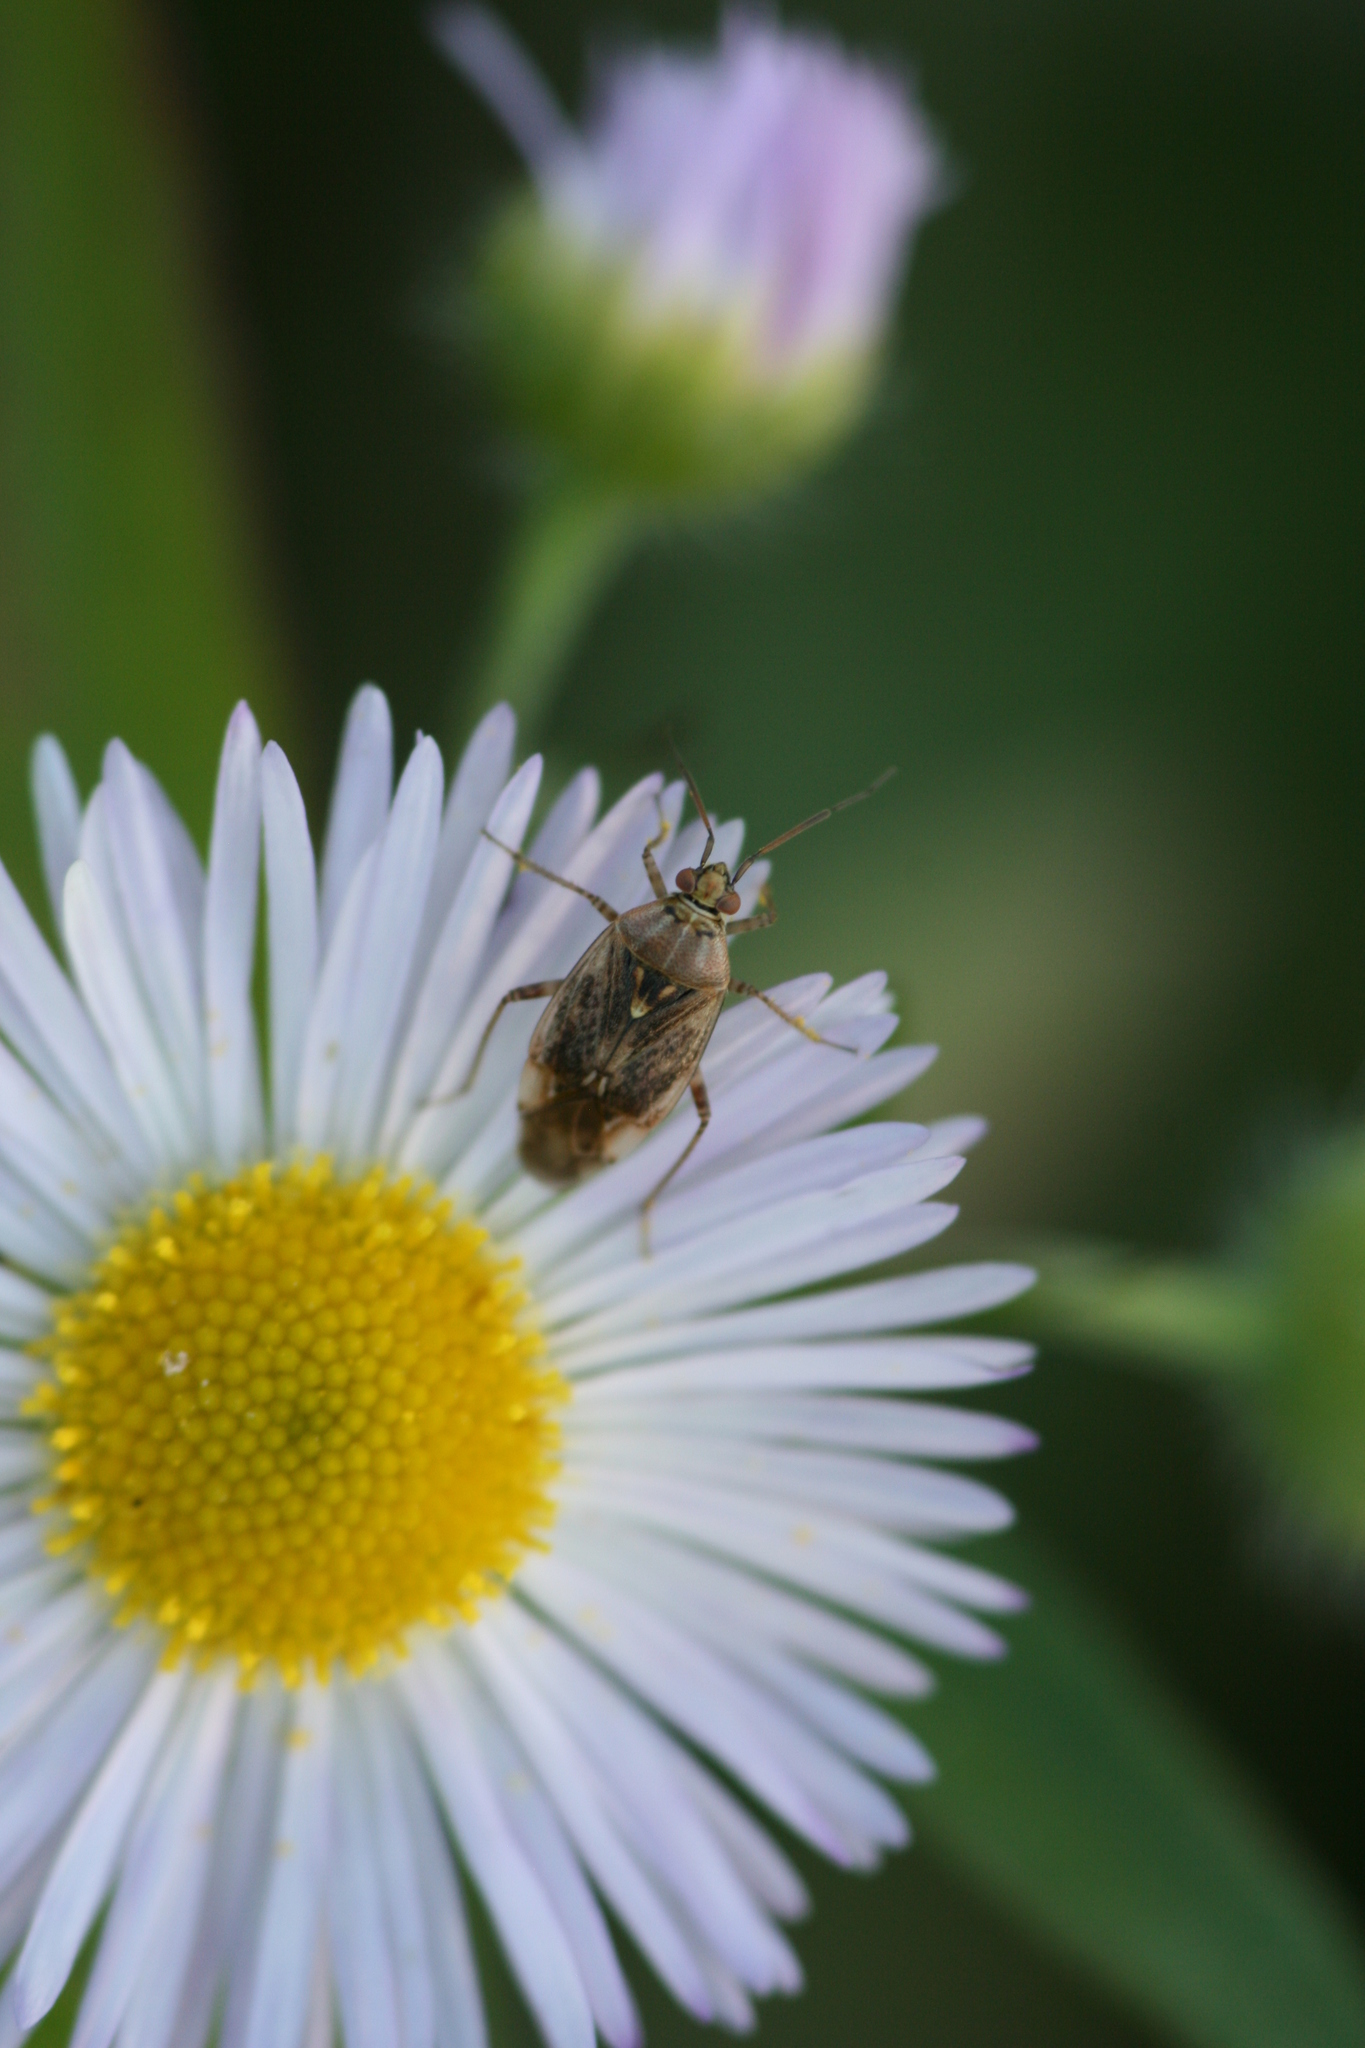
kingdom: Animalia
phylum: Arthropoda
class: Insecta
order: Hemiptera
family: Miridae
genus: Lygus
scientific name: Lygus rugulipennis
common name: European tarnished plant bug
